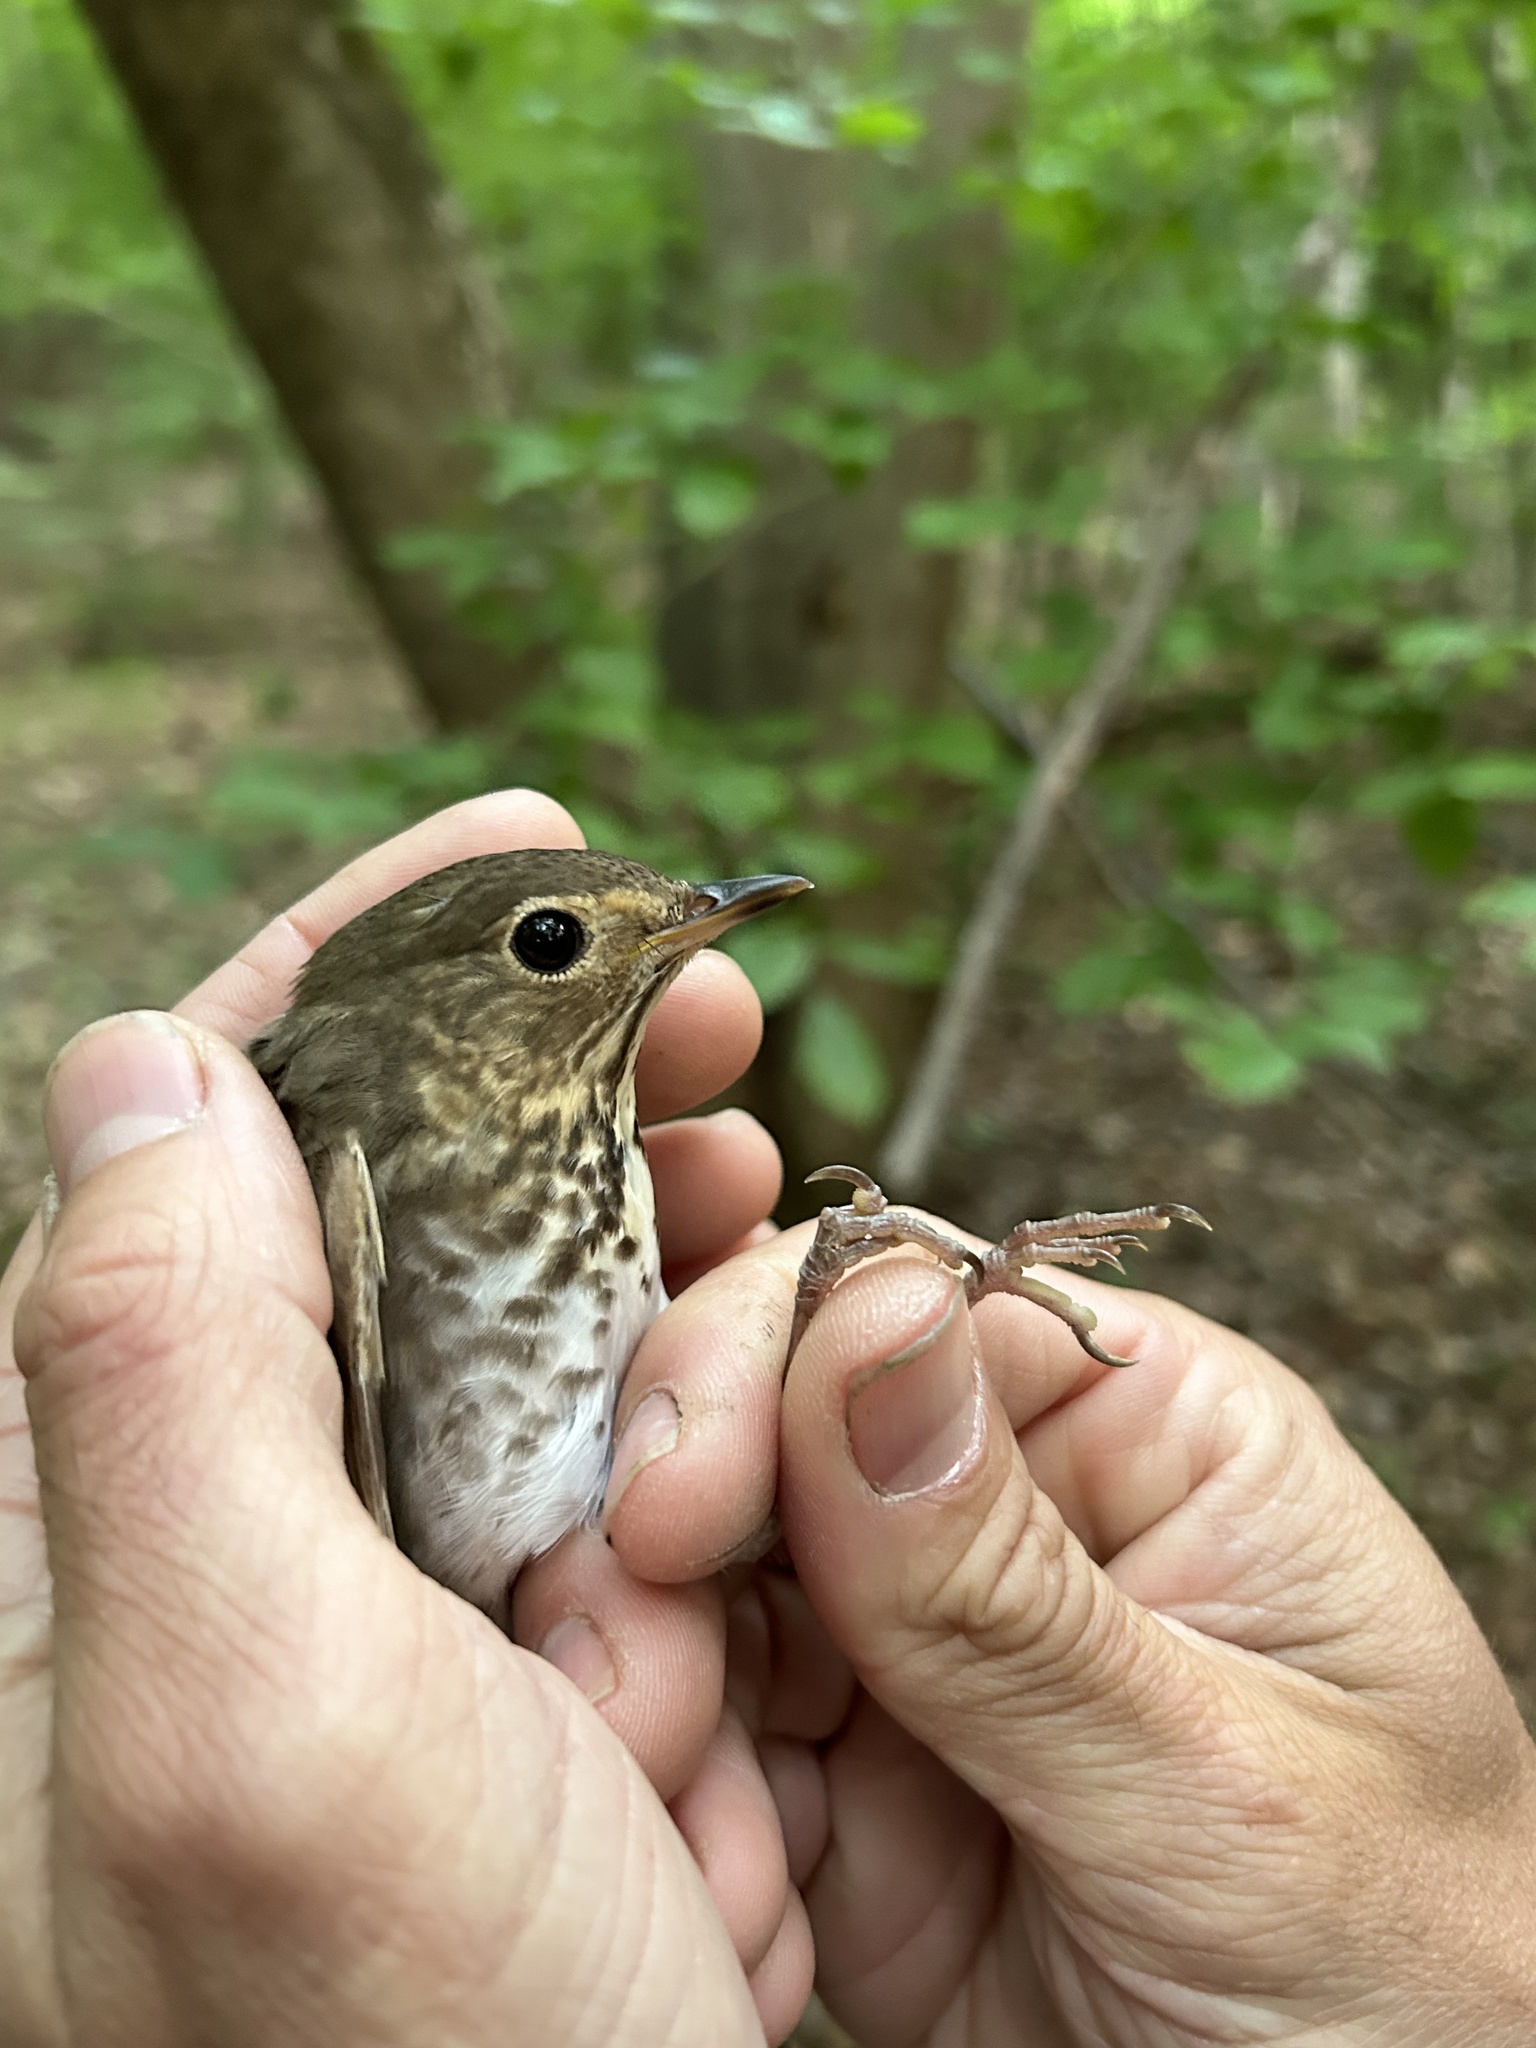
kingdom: Animalia
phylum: Chordata
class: Aves
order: Passeriformes
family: Turdidae
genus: Catharus
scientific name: Catharus ustulatus
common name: Swainson's thrush
